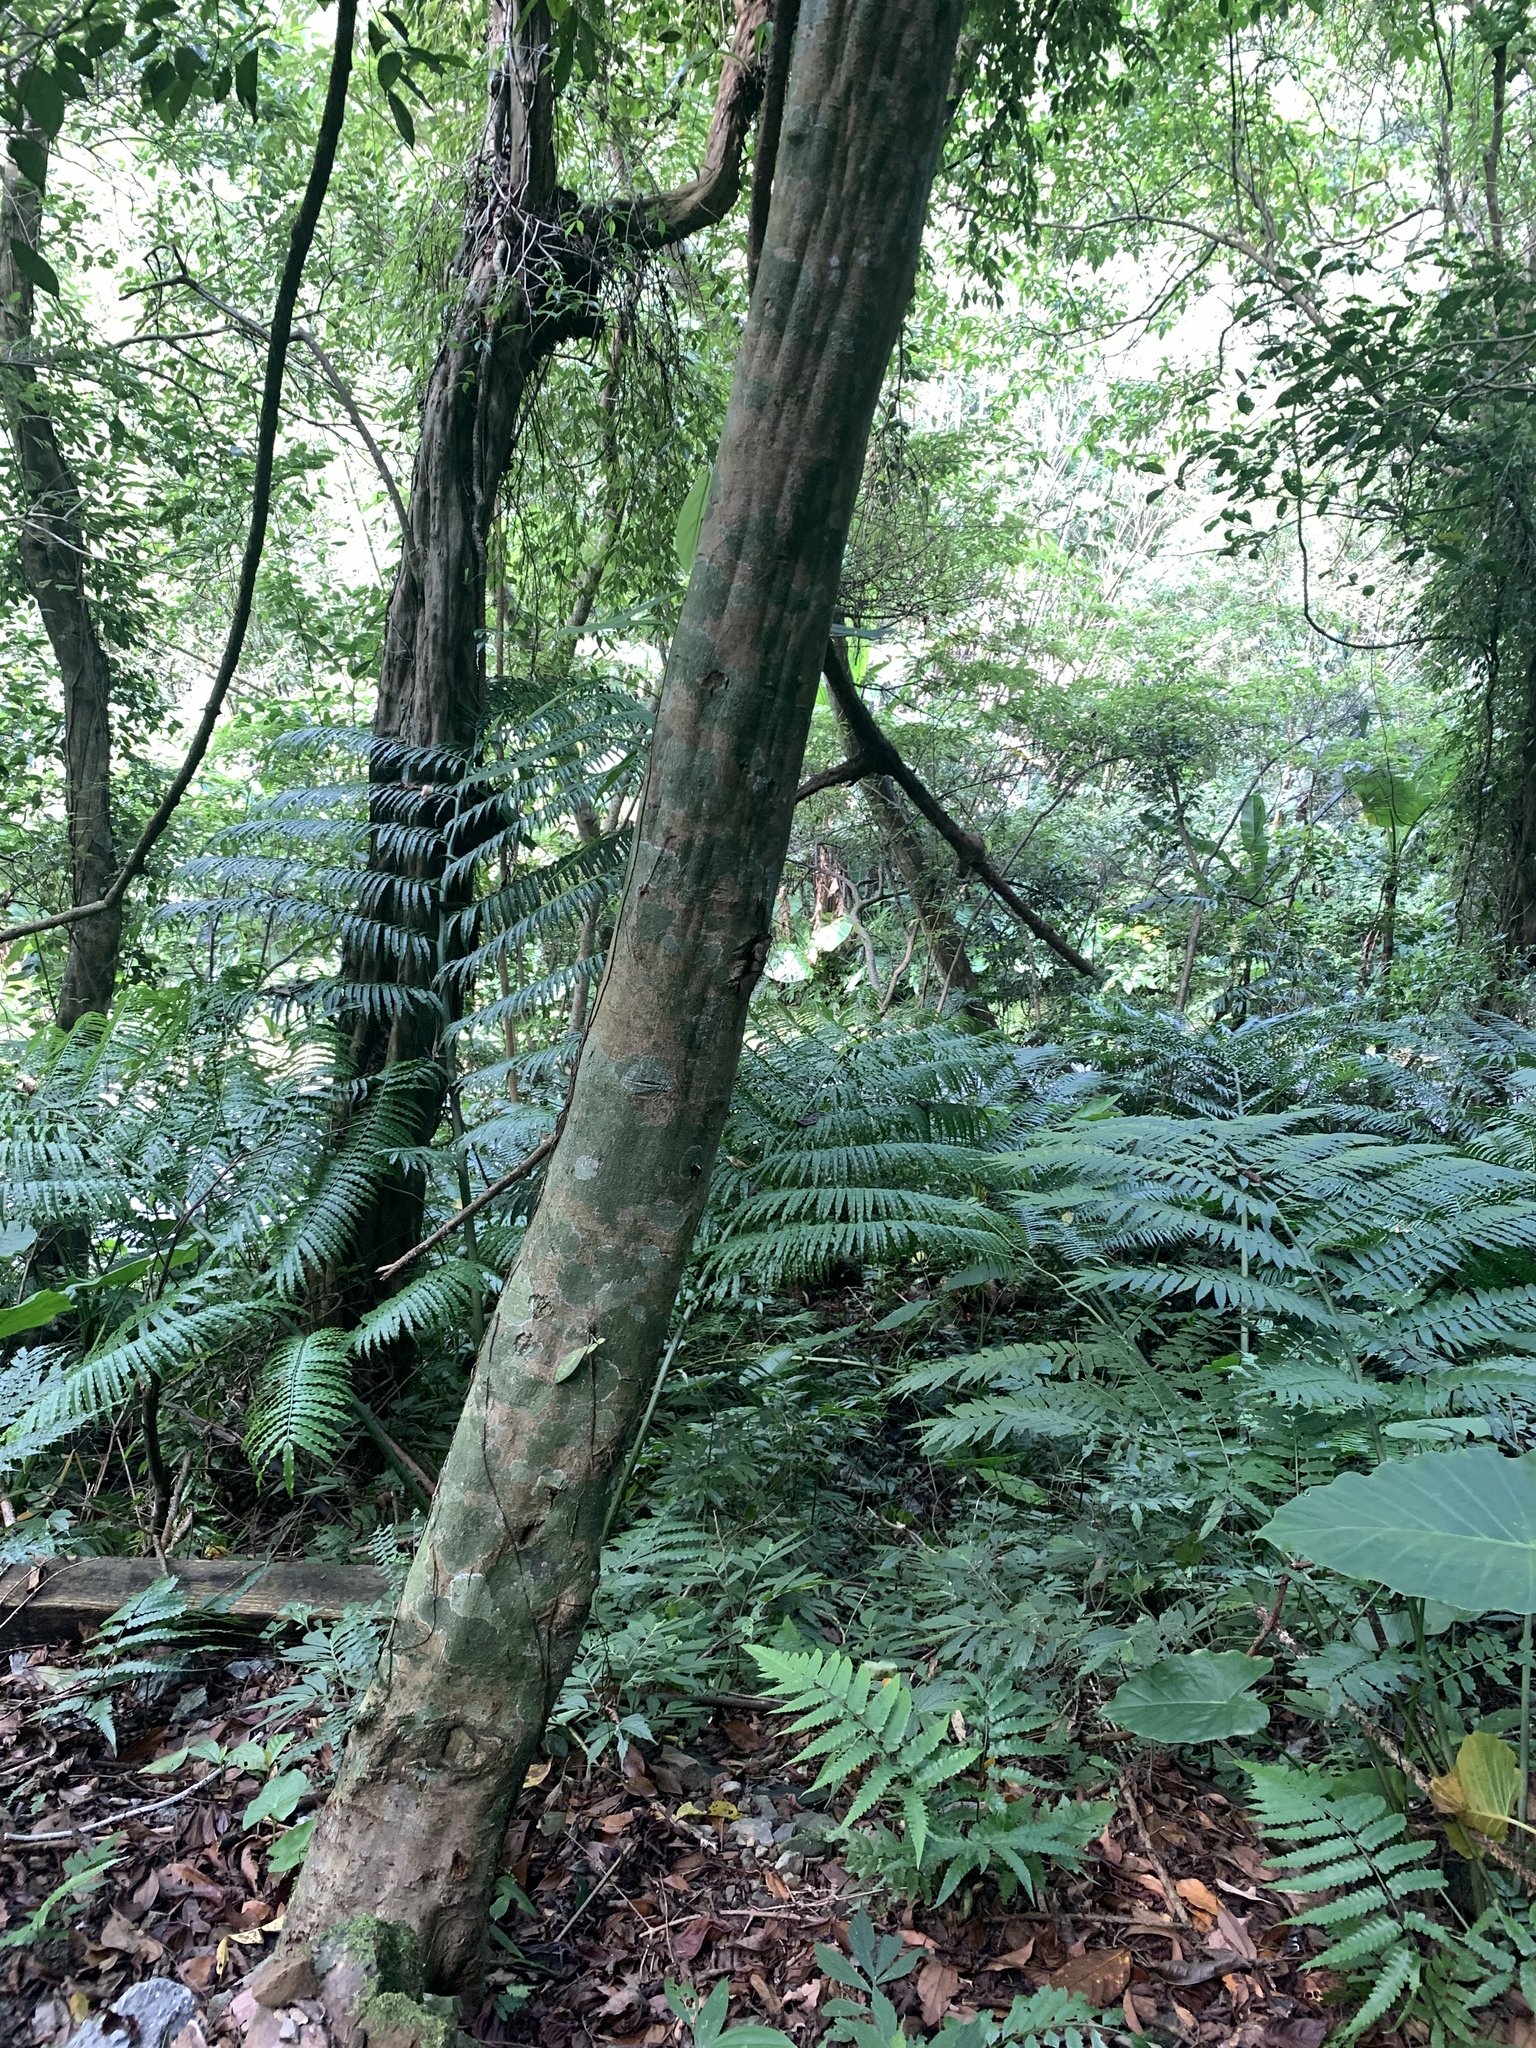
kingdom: Plantae
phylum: Tracheophyta
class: Magnoliopsida
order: Laurales
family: Lauraceae
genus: Cryptocarya
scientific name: Cryptocarya chinensis
